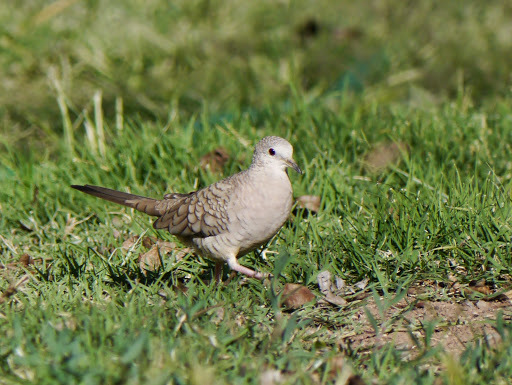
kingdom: Animalia
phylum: Chordata
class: Aves
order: Columbiformes
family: Columbidae
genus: Columbina
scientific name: Columbina inca
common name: Inca dove
